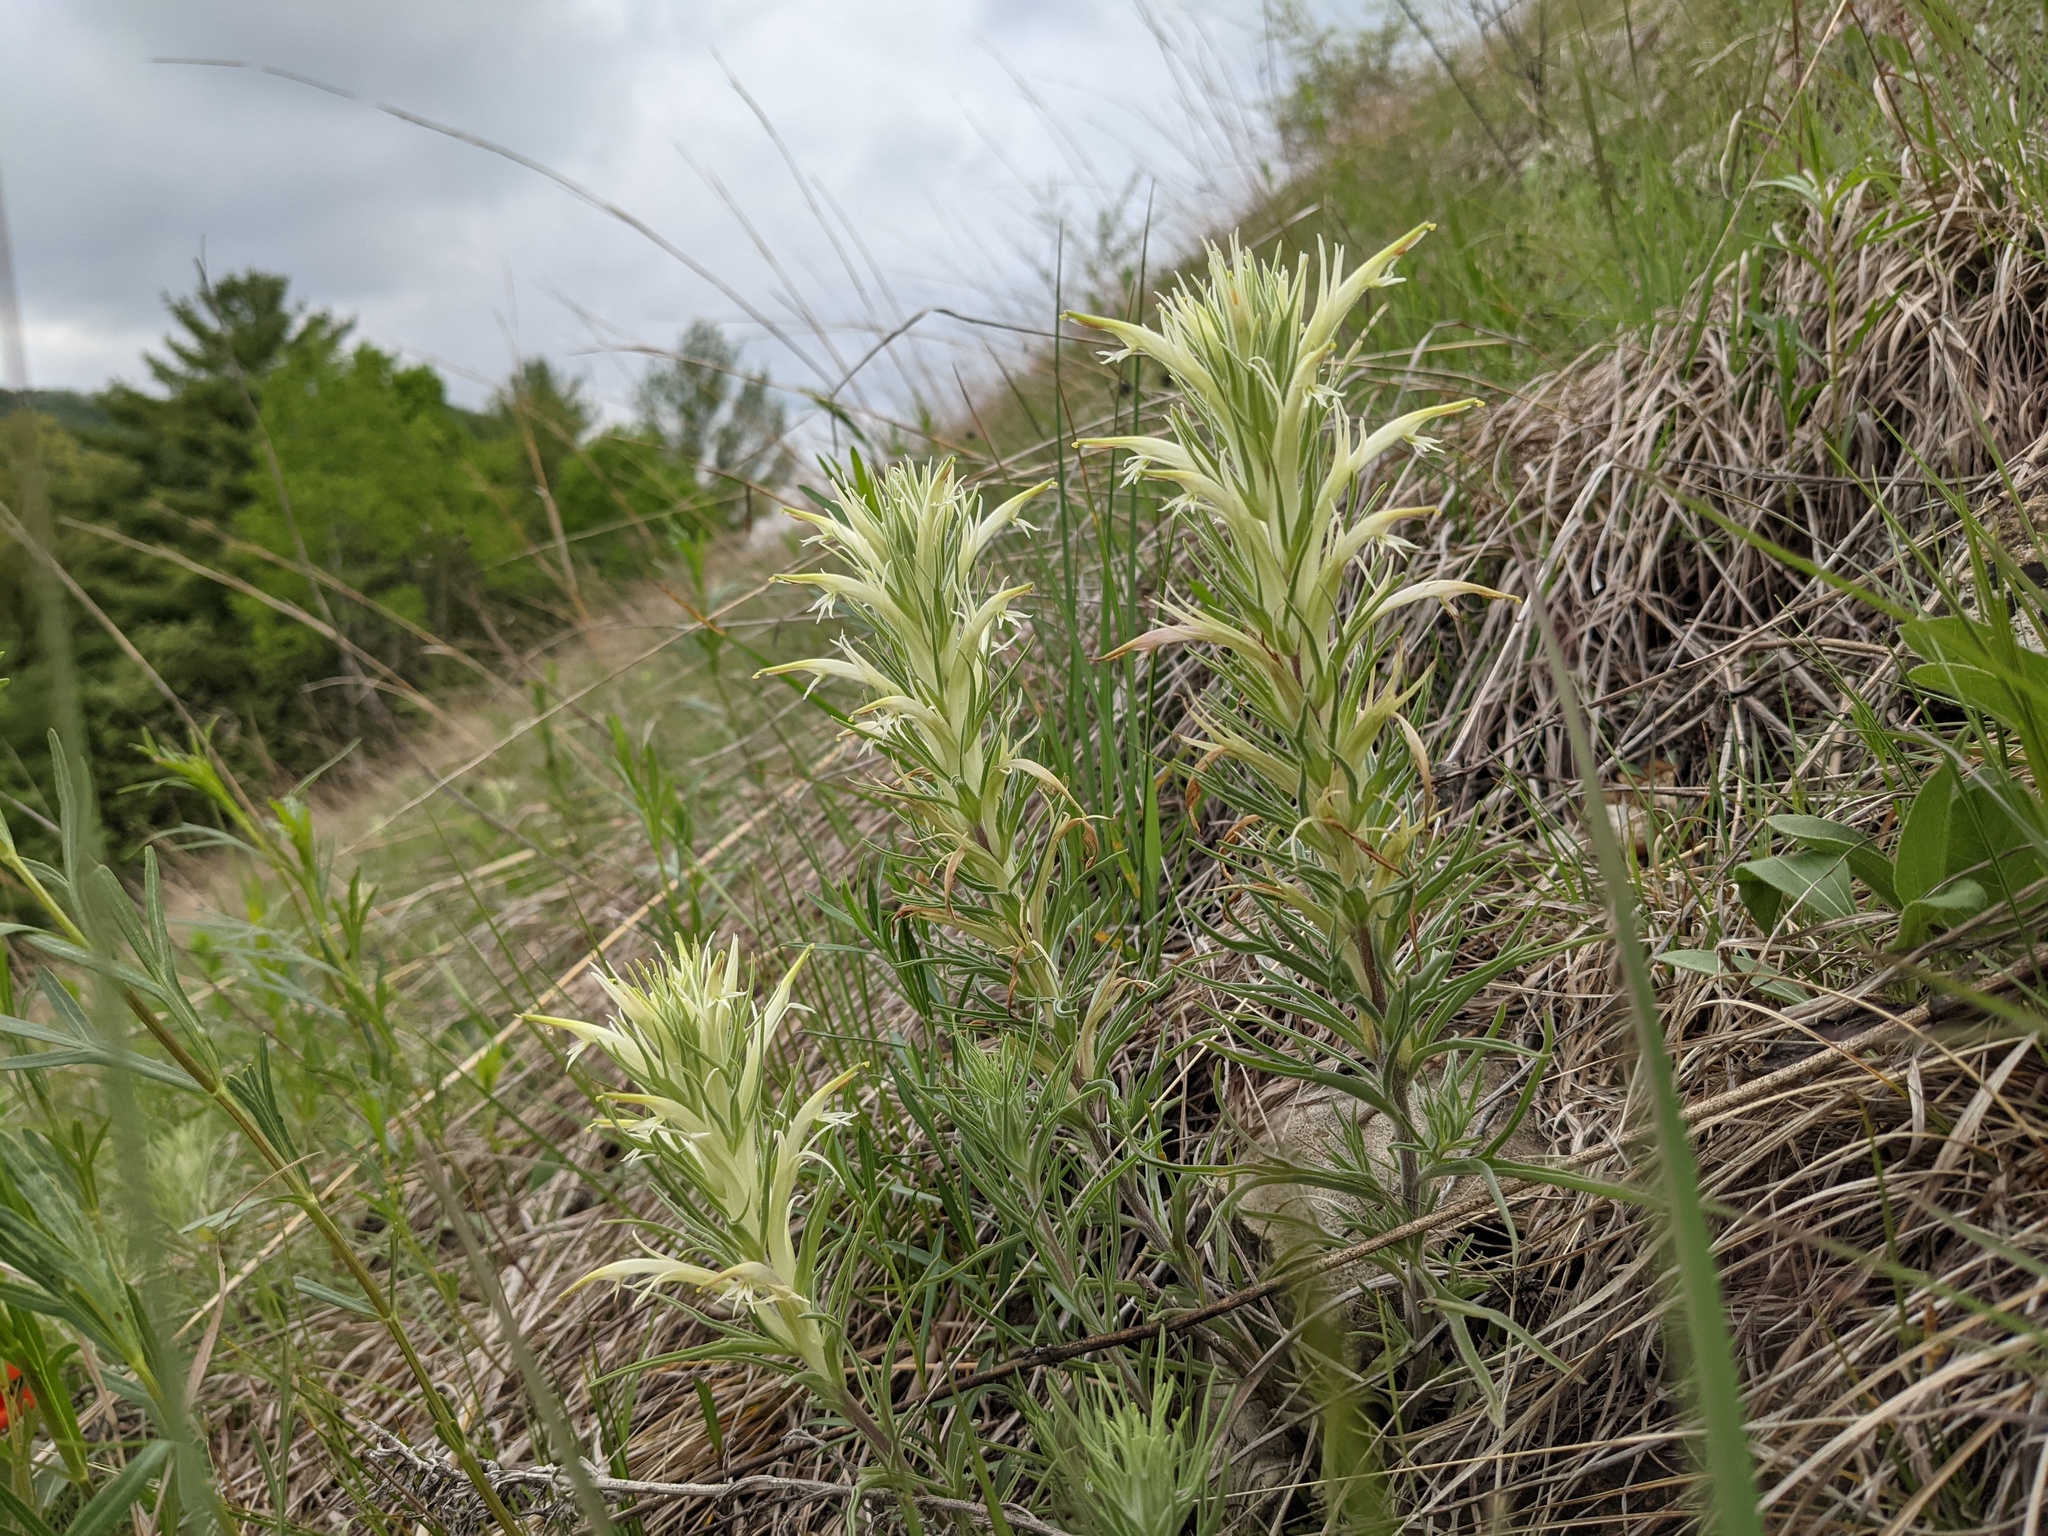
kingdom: Plantae
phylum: Tracheophyta
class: Magnoliopsida
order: Lamiales
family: Orobanchaceae
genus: Castilleja
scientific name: Castilleja sessiliflora
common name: Downy paintbrush
